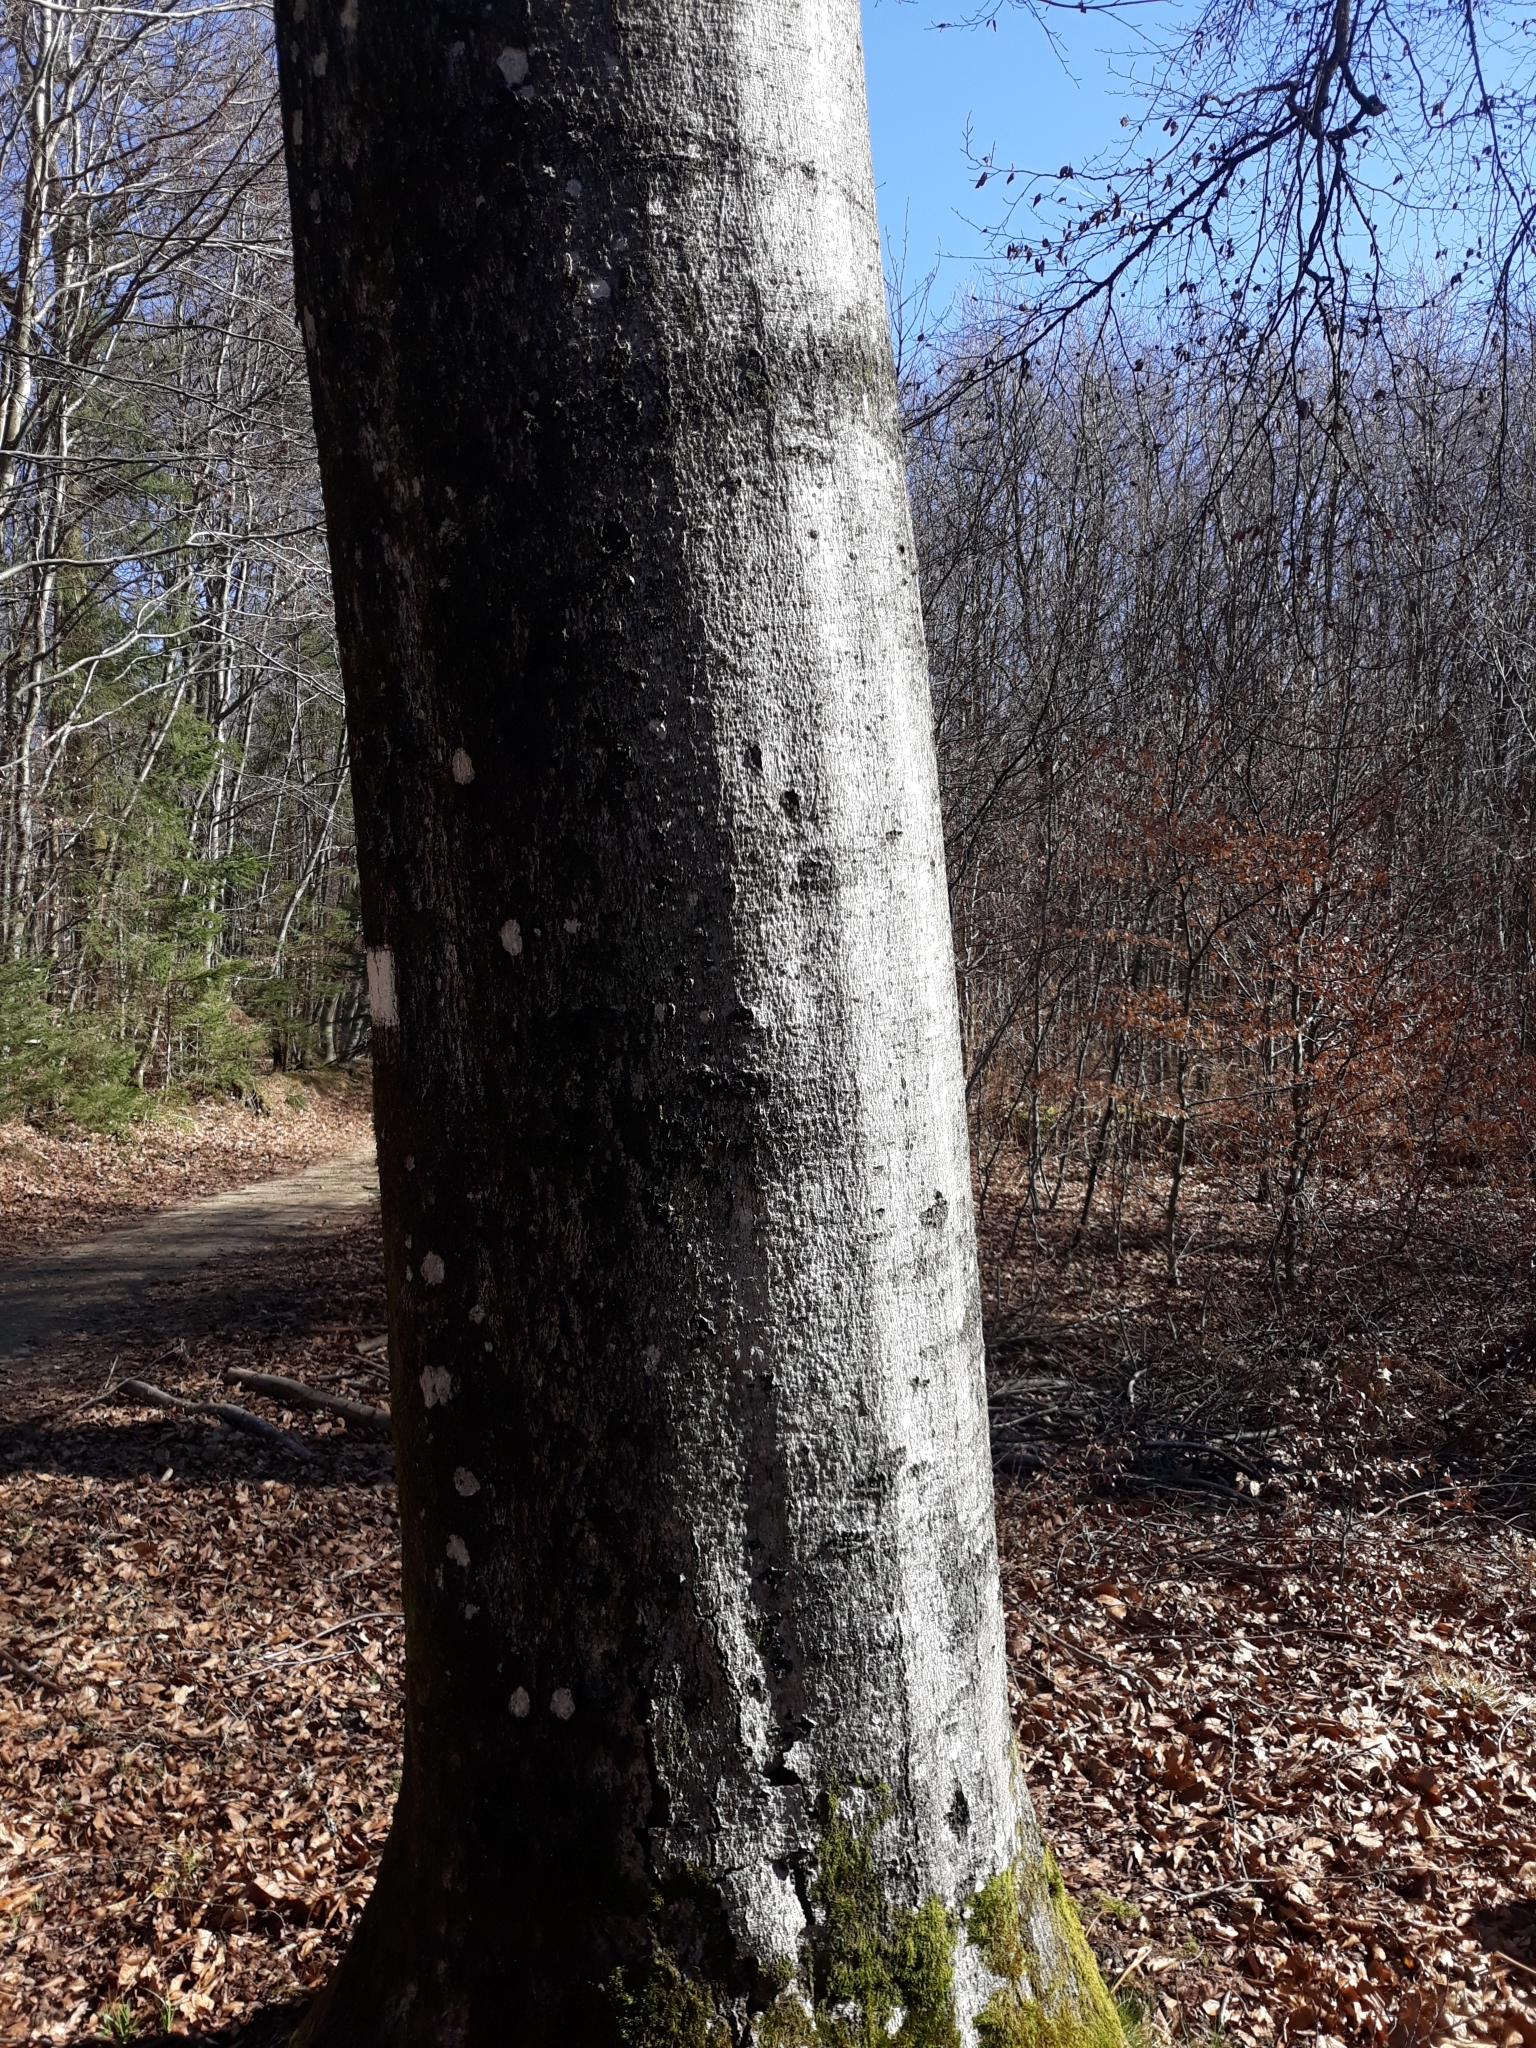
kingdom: Plantae
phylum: Tracheophyta
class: Magnoliopsida
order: Fagales
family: Fagaceae
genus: Fagus
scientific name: Fagus sylvatica
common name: Beech
